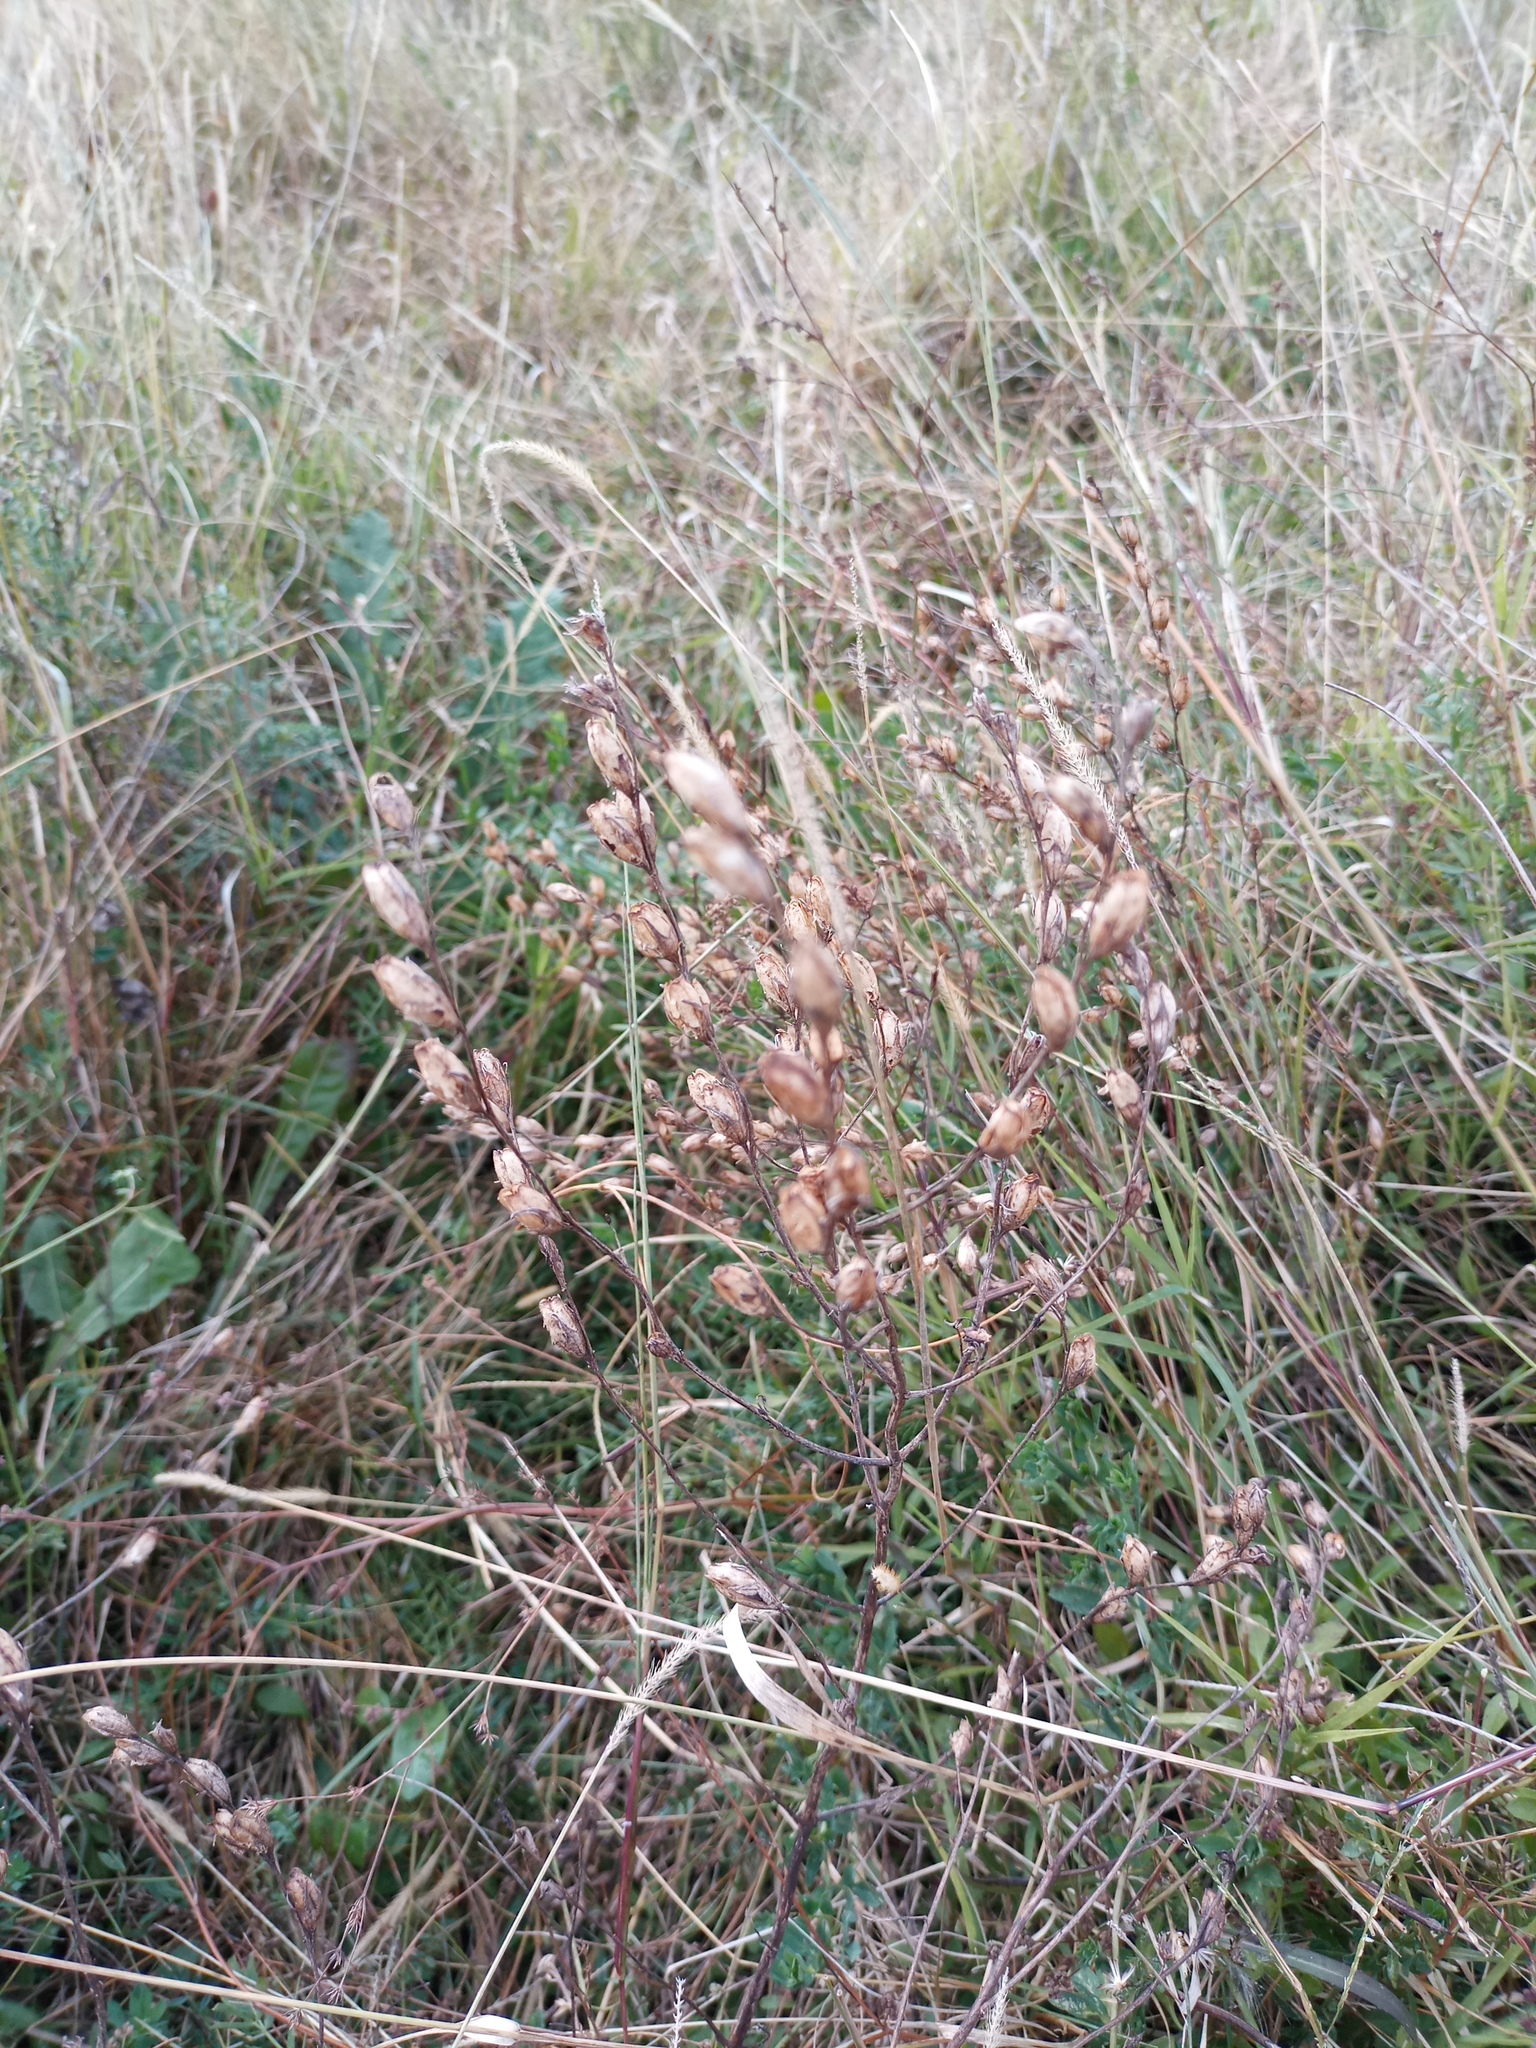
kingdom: Plantae
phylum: Tracheophyta
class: Magnoliopsida
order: Lamiales
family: Orobanchaceae
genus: Agalinis
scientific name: Agalinis communis
